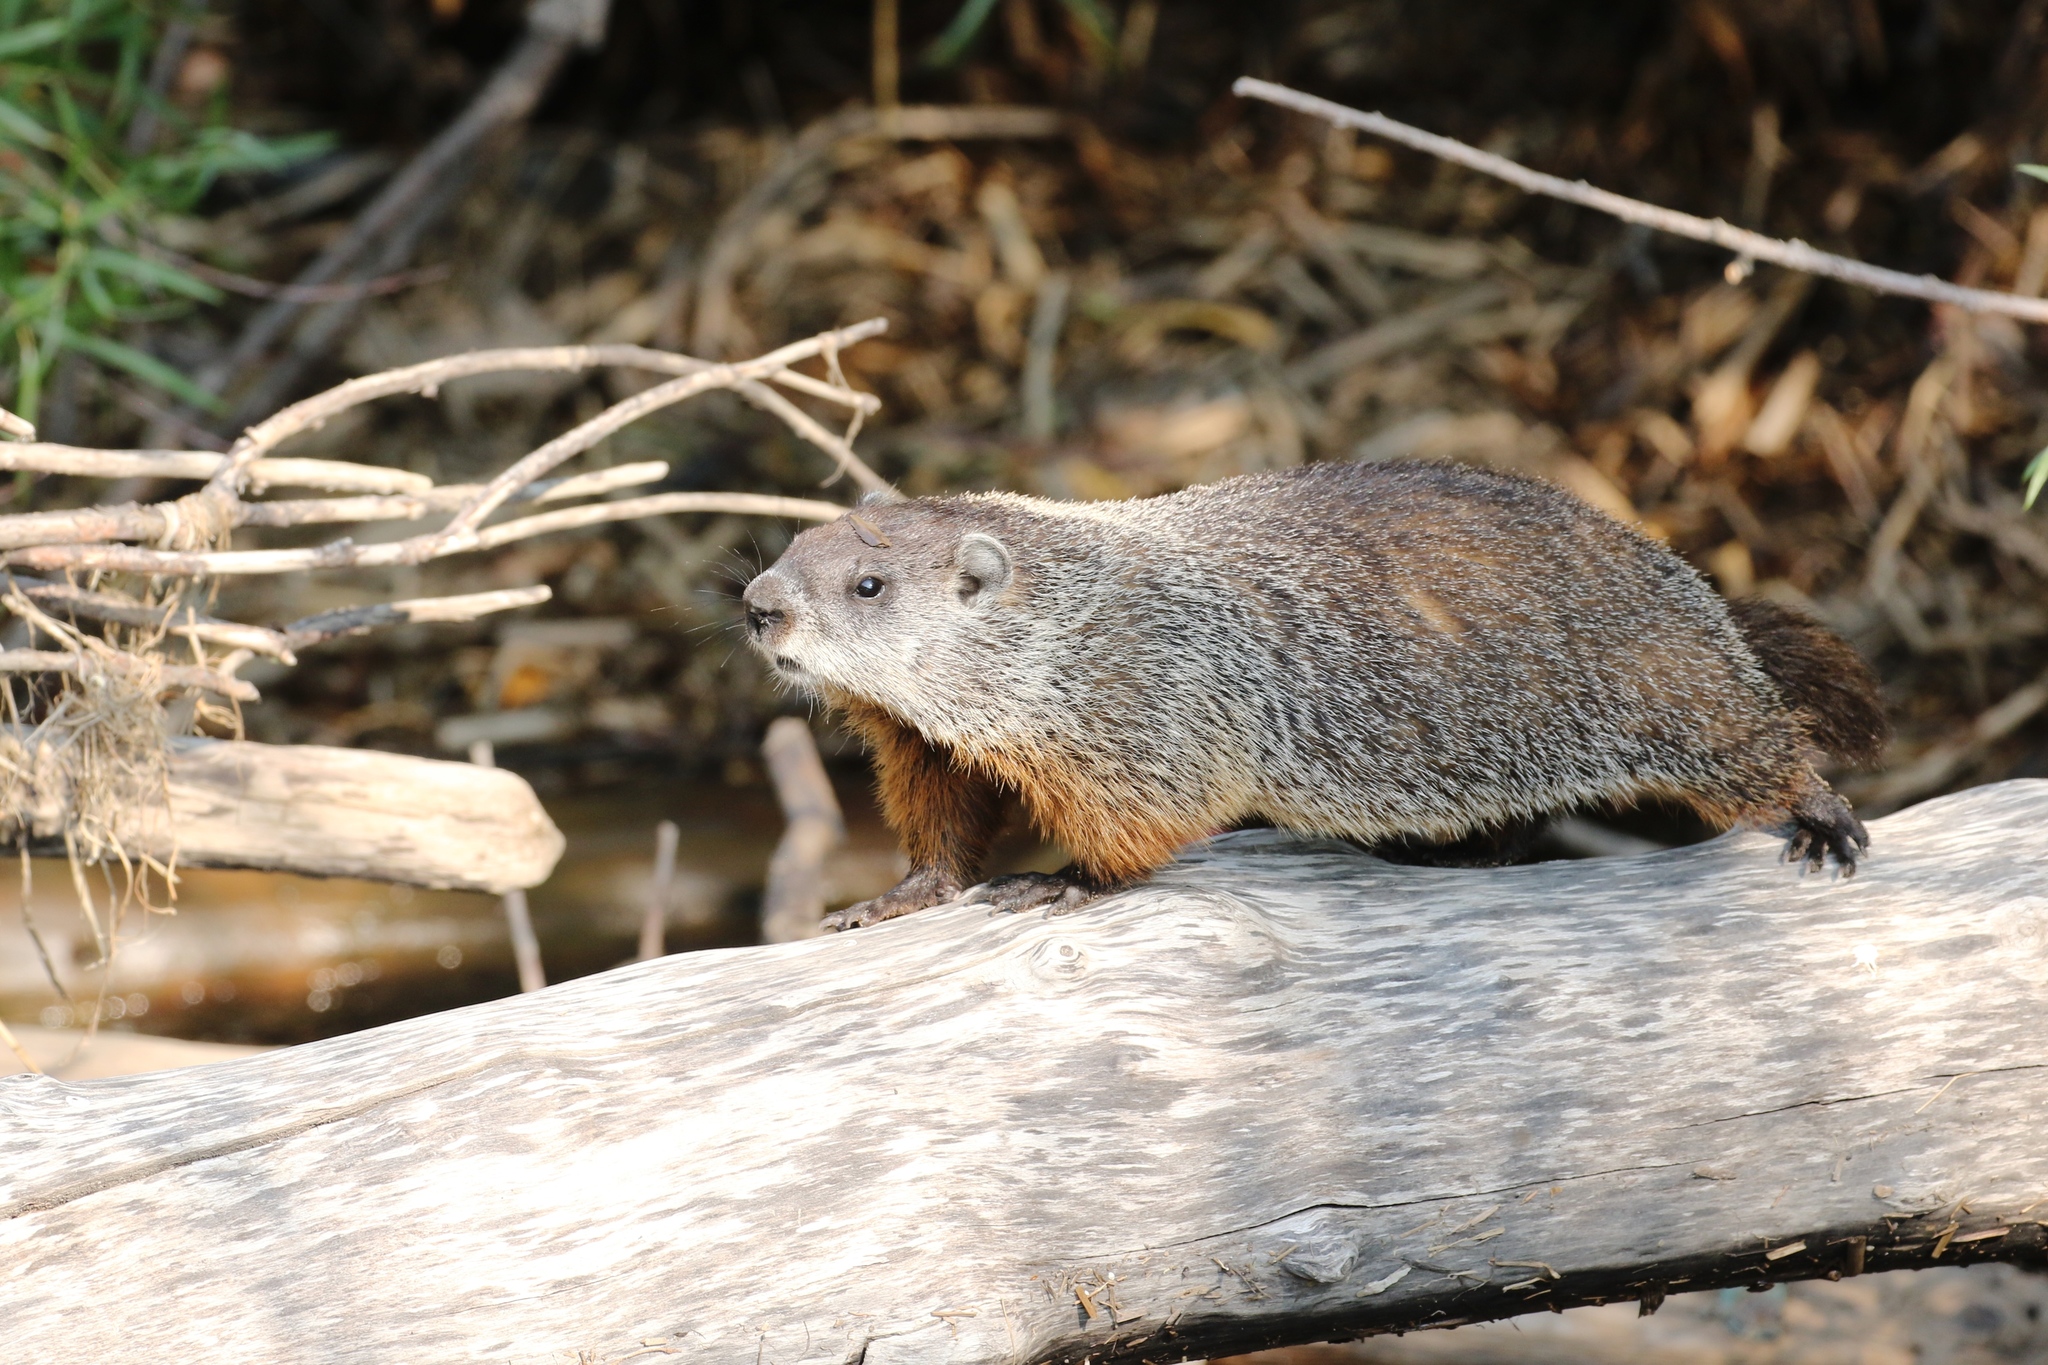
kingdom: Animalia
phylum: Chordata
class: Mammalia
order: Rodentia
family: Sciuridae
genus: Marmota
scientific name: Marmota monax
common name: Groundhog
